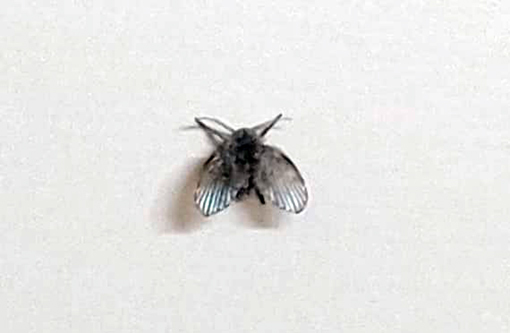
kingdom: Animalia
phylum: Arthropoda
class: Insecta
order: Diptera
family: Psychodidae
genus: Clogmia
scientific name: Clogmia albipunctatus
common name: White-spotted moth fly
